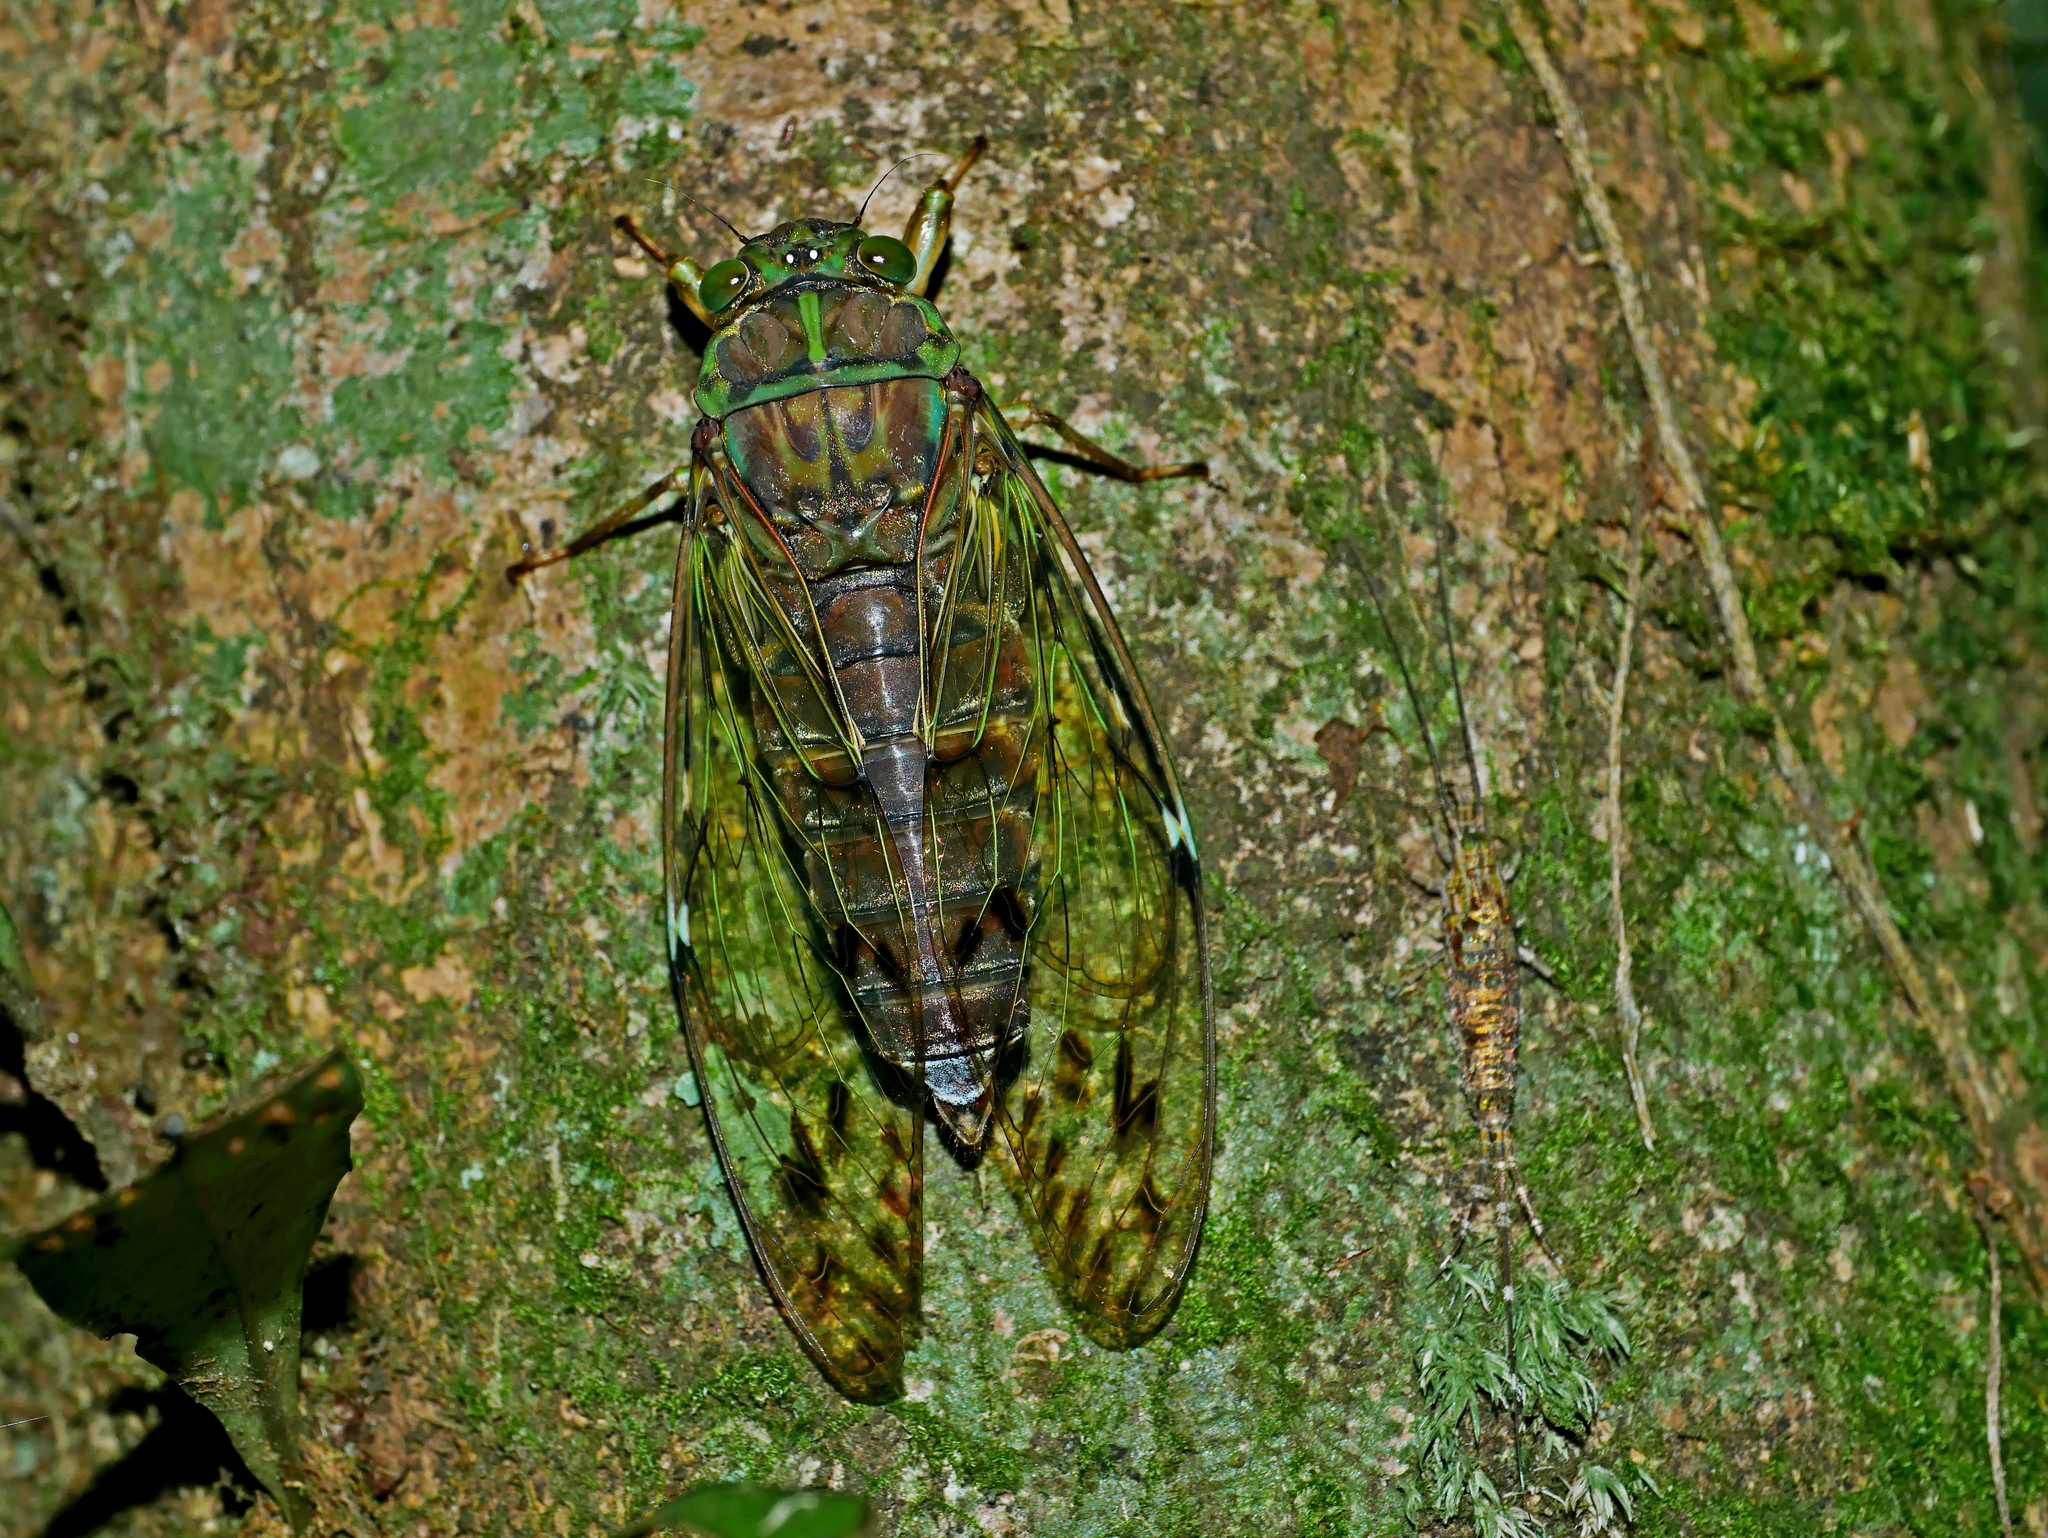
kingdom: Animalia
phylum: Arthropoda
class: Insecta
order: Hemiptera
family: Cicadidae
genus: Tanna
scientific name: Tanna sozanensis
